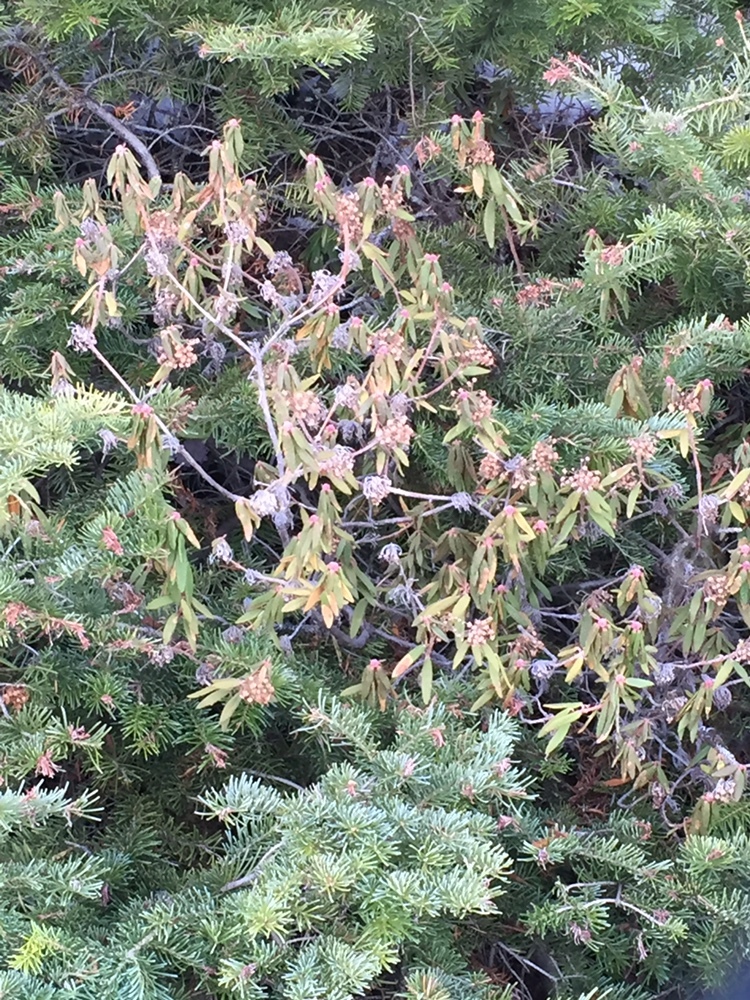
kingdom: Plantae
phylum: Tracheophyta
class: Magnoliopsida
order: Ericales
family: Ericaceae
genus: Rhododendron
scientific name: Rhododendron groenlandicum
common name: Bog labrador tea
